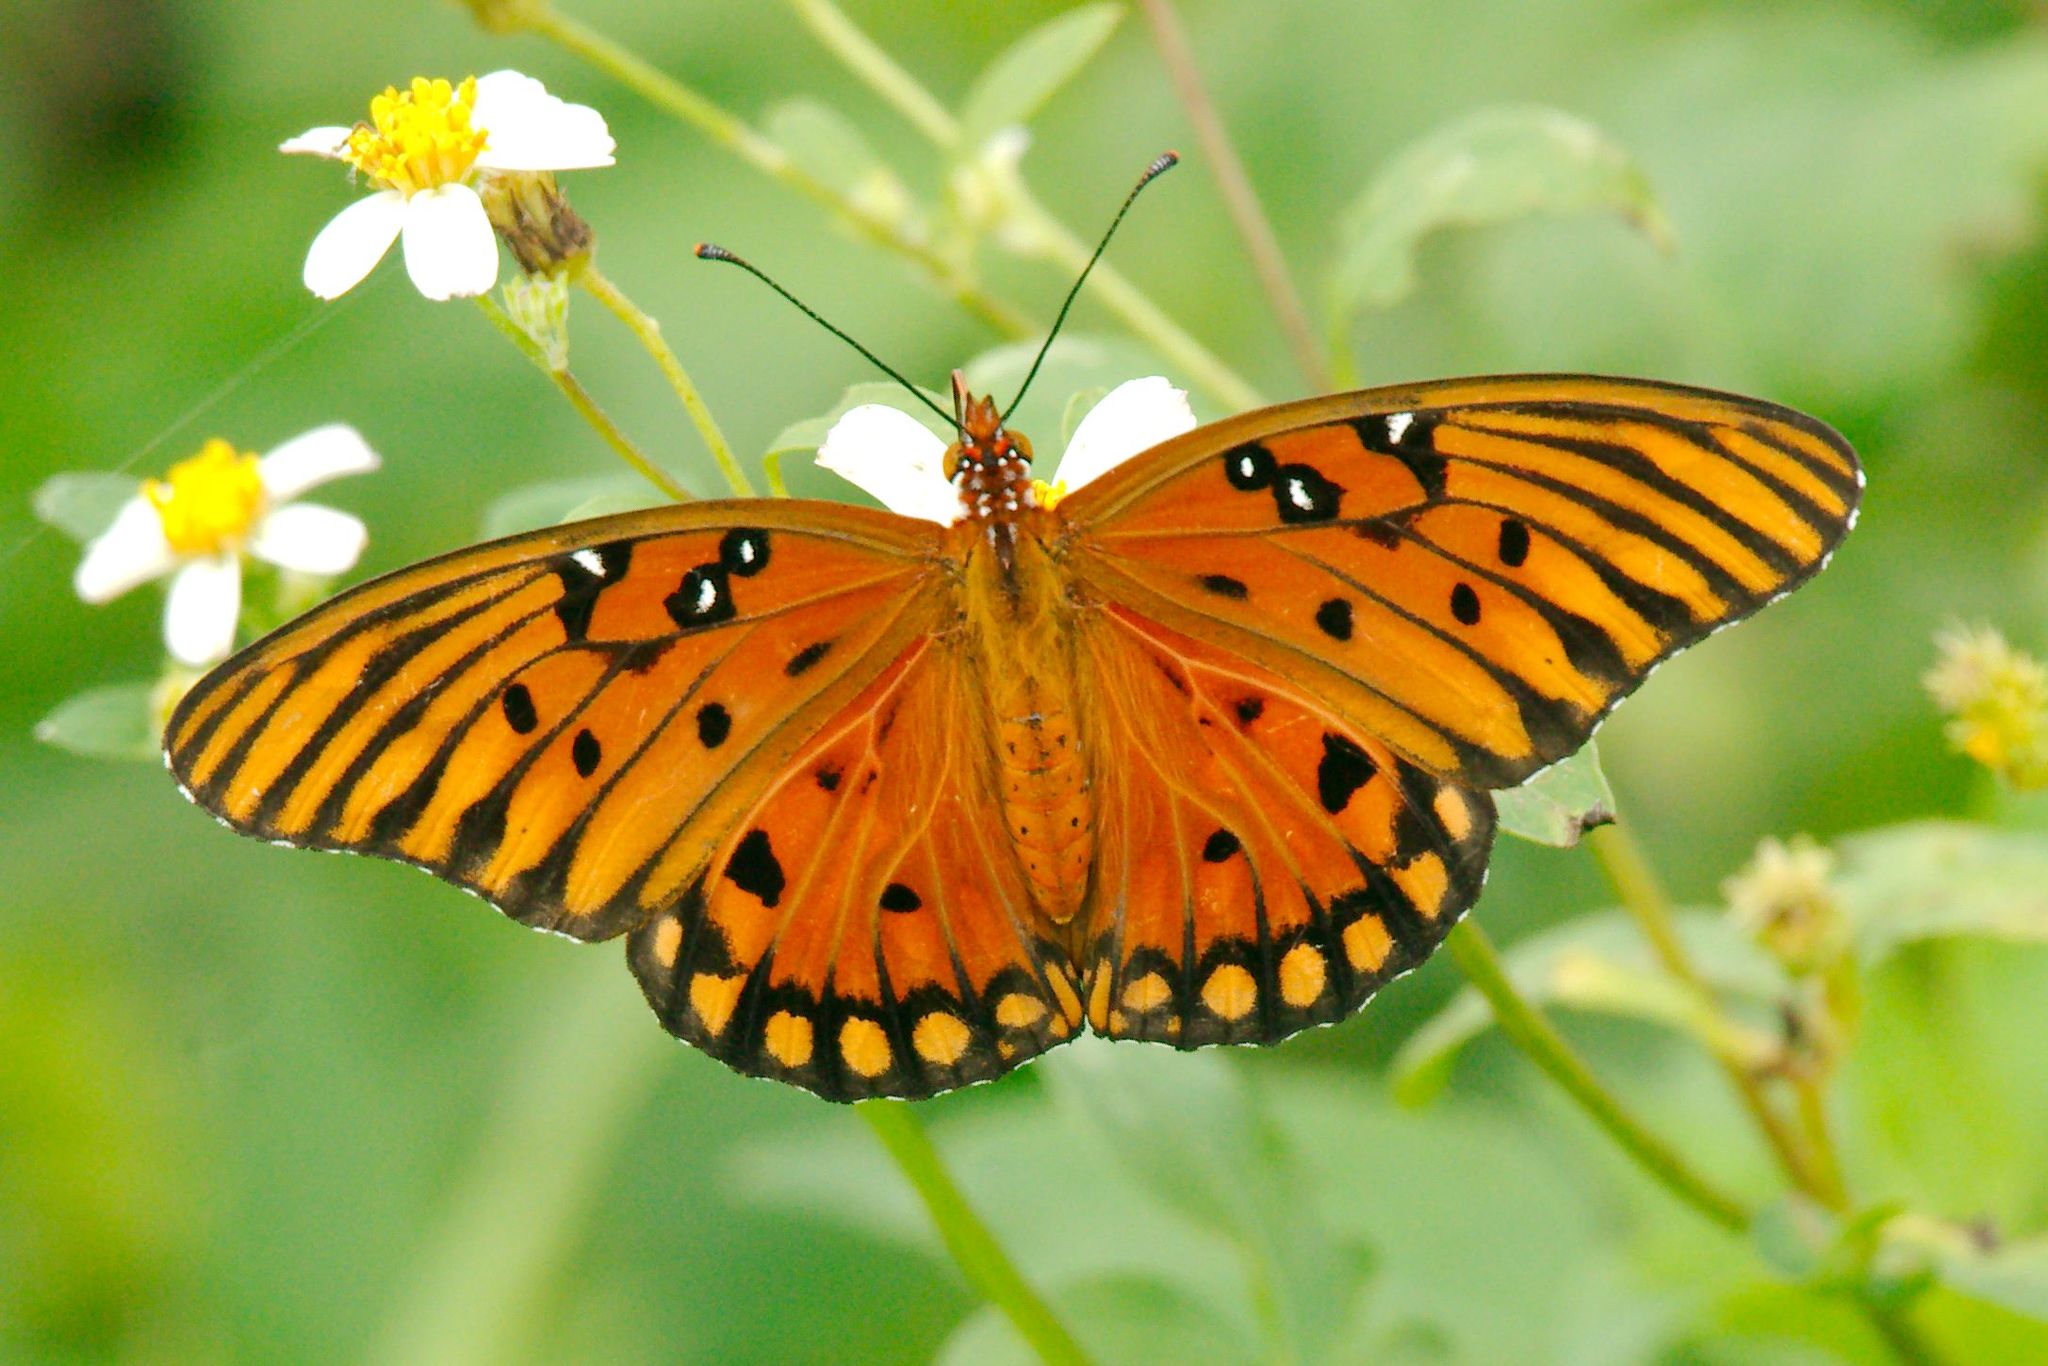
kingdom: Animalia
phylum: Arthropoda
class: Insecta
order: Lepidoptera
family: Nymphalidae
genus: Dione
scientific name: Dione vanillae
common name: Gulf fritillary
